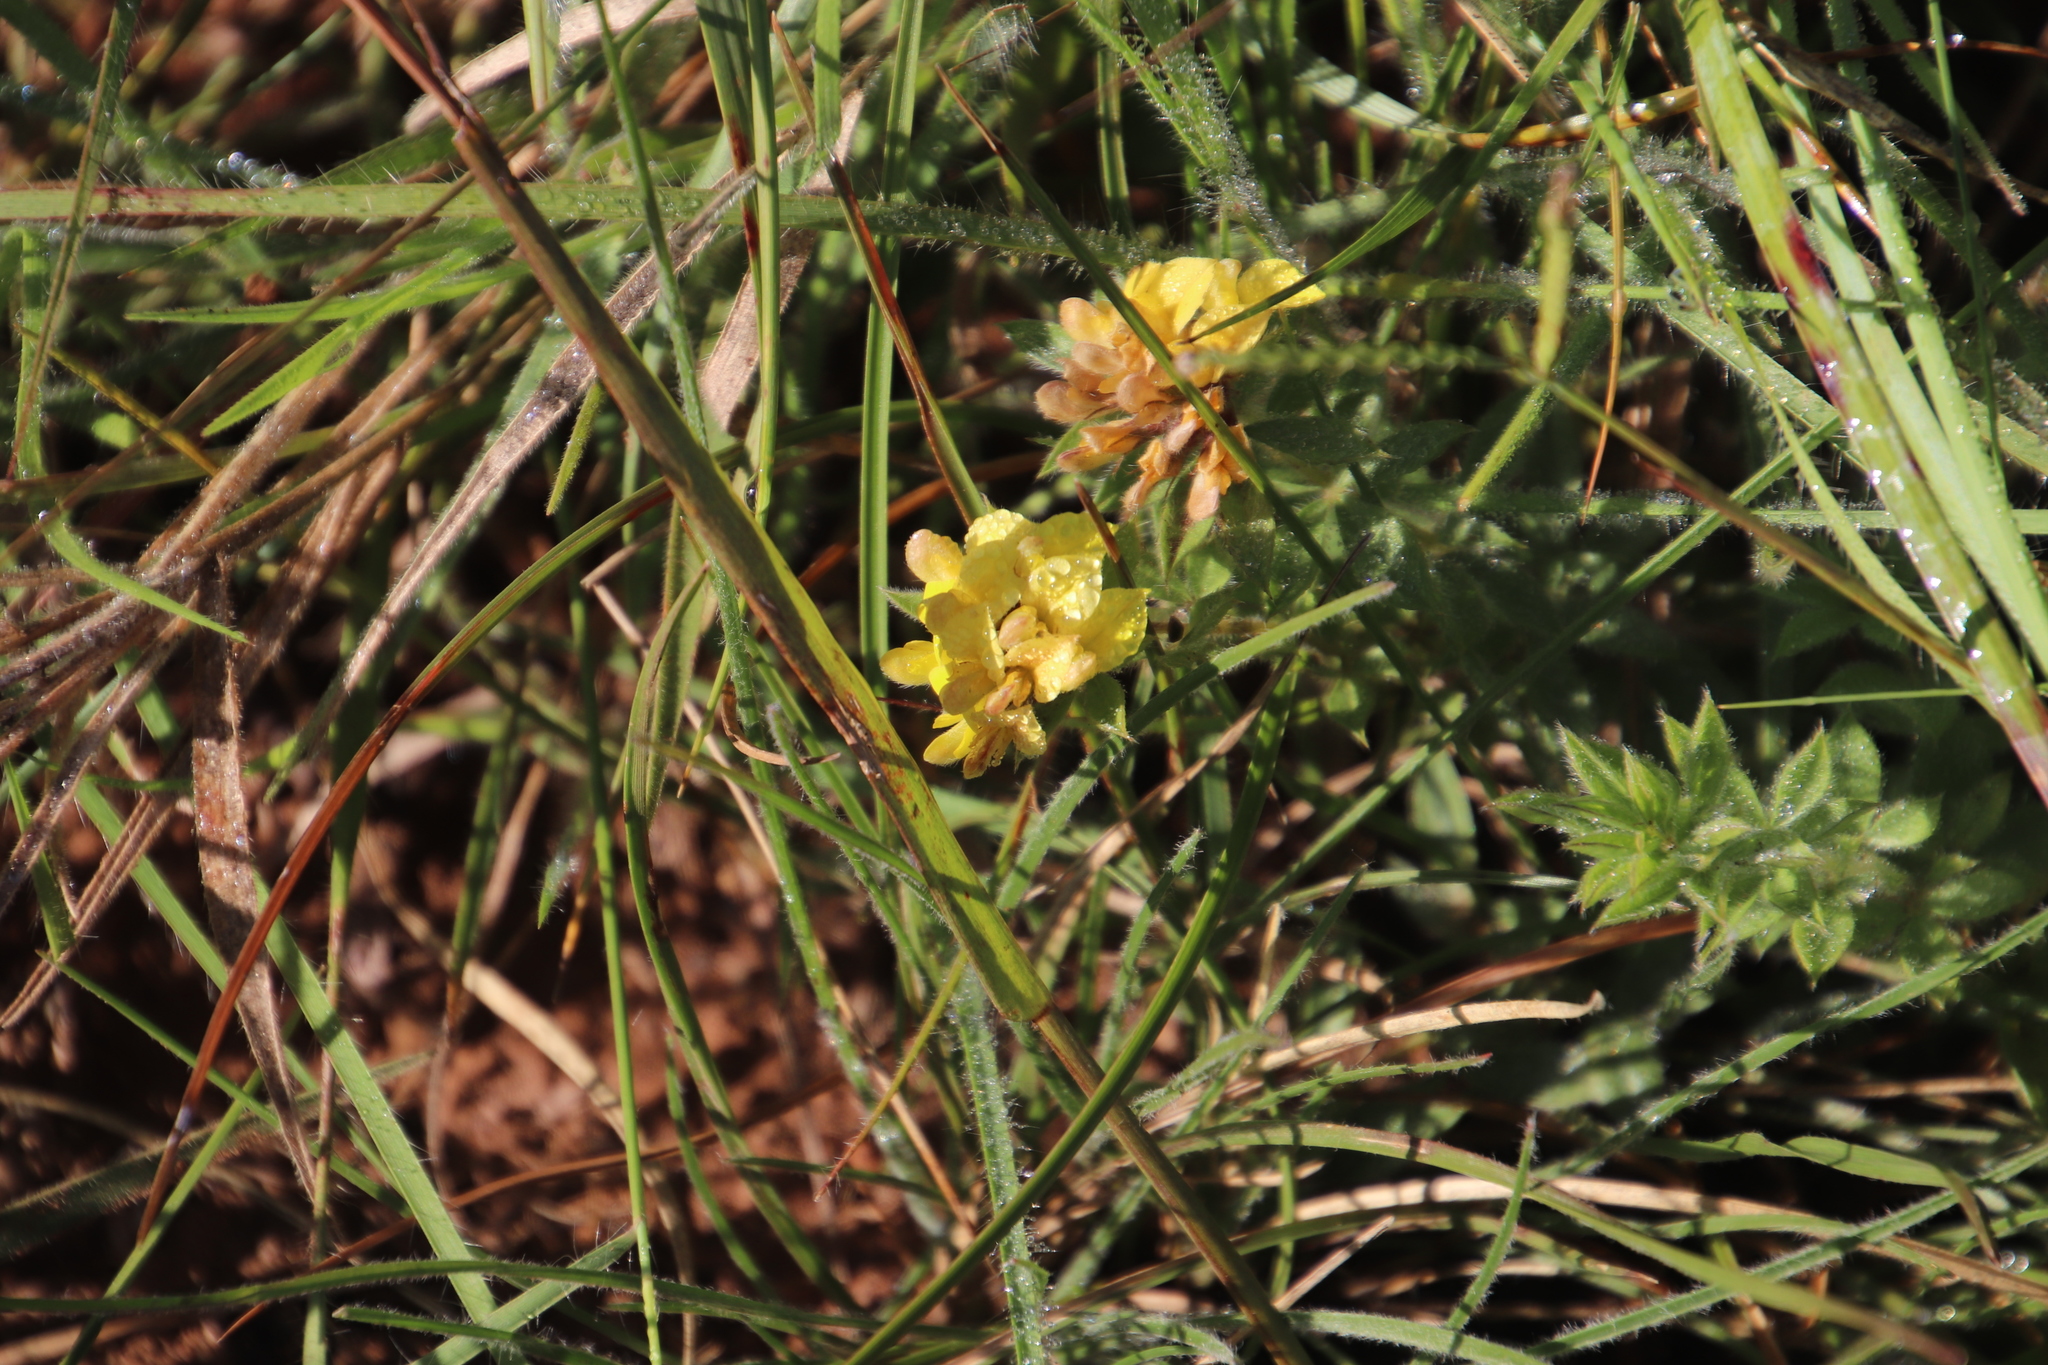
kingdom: Plantae
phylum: Tracheophyta
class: Magnoliopsida
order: Fabales
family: Fabaceae
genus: Leobordea
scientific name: Leobordea eriantha
